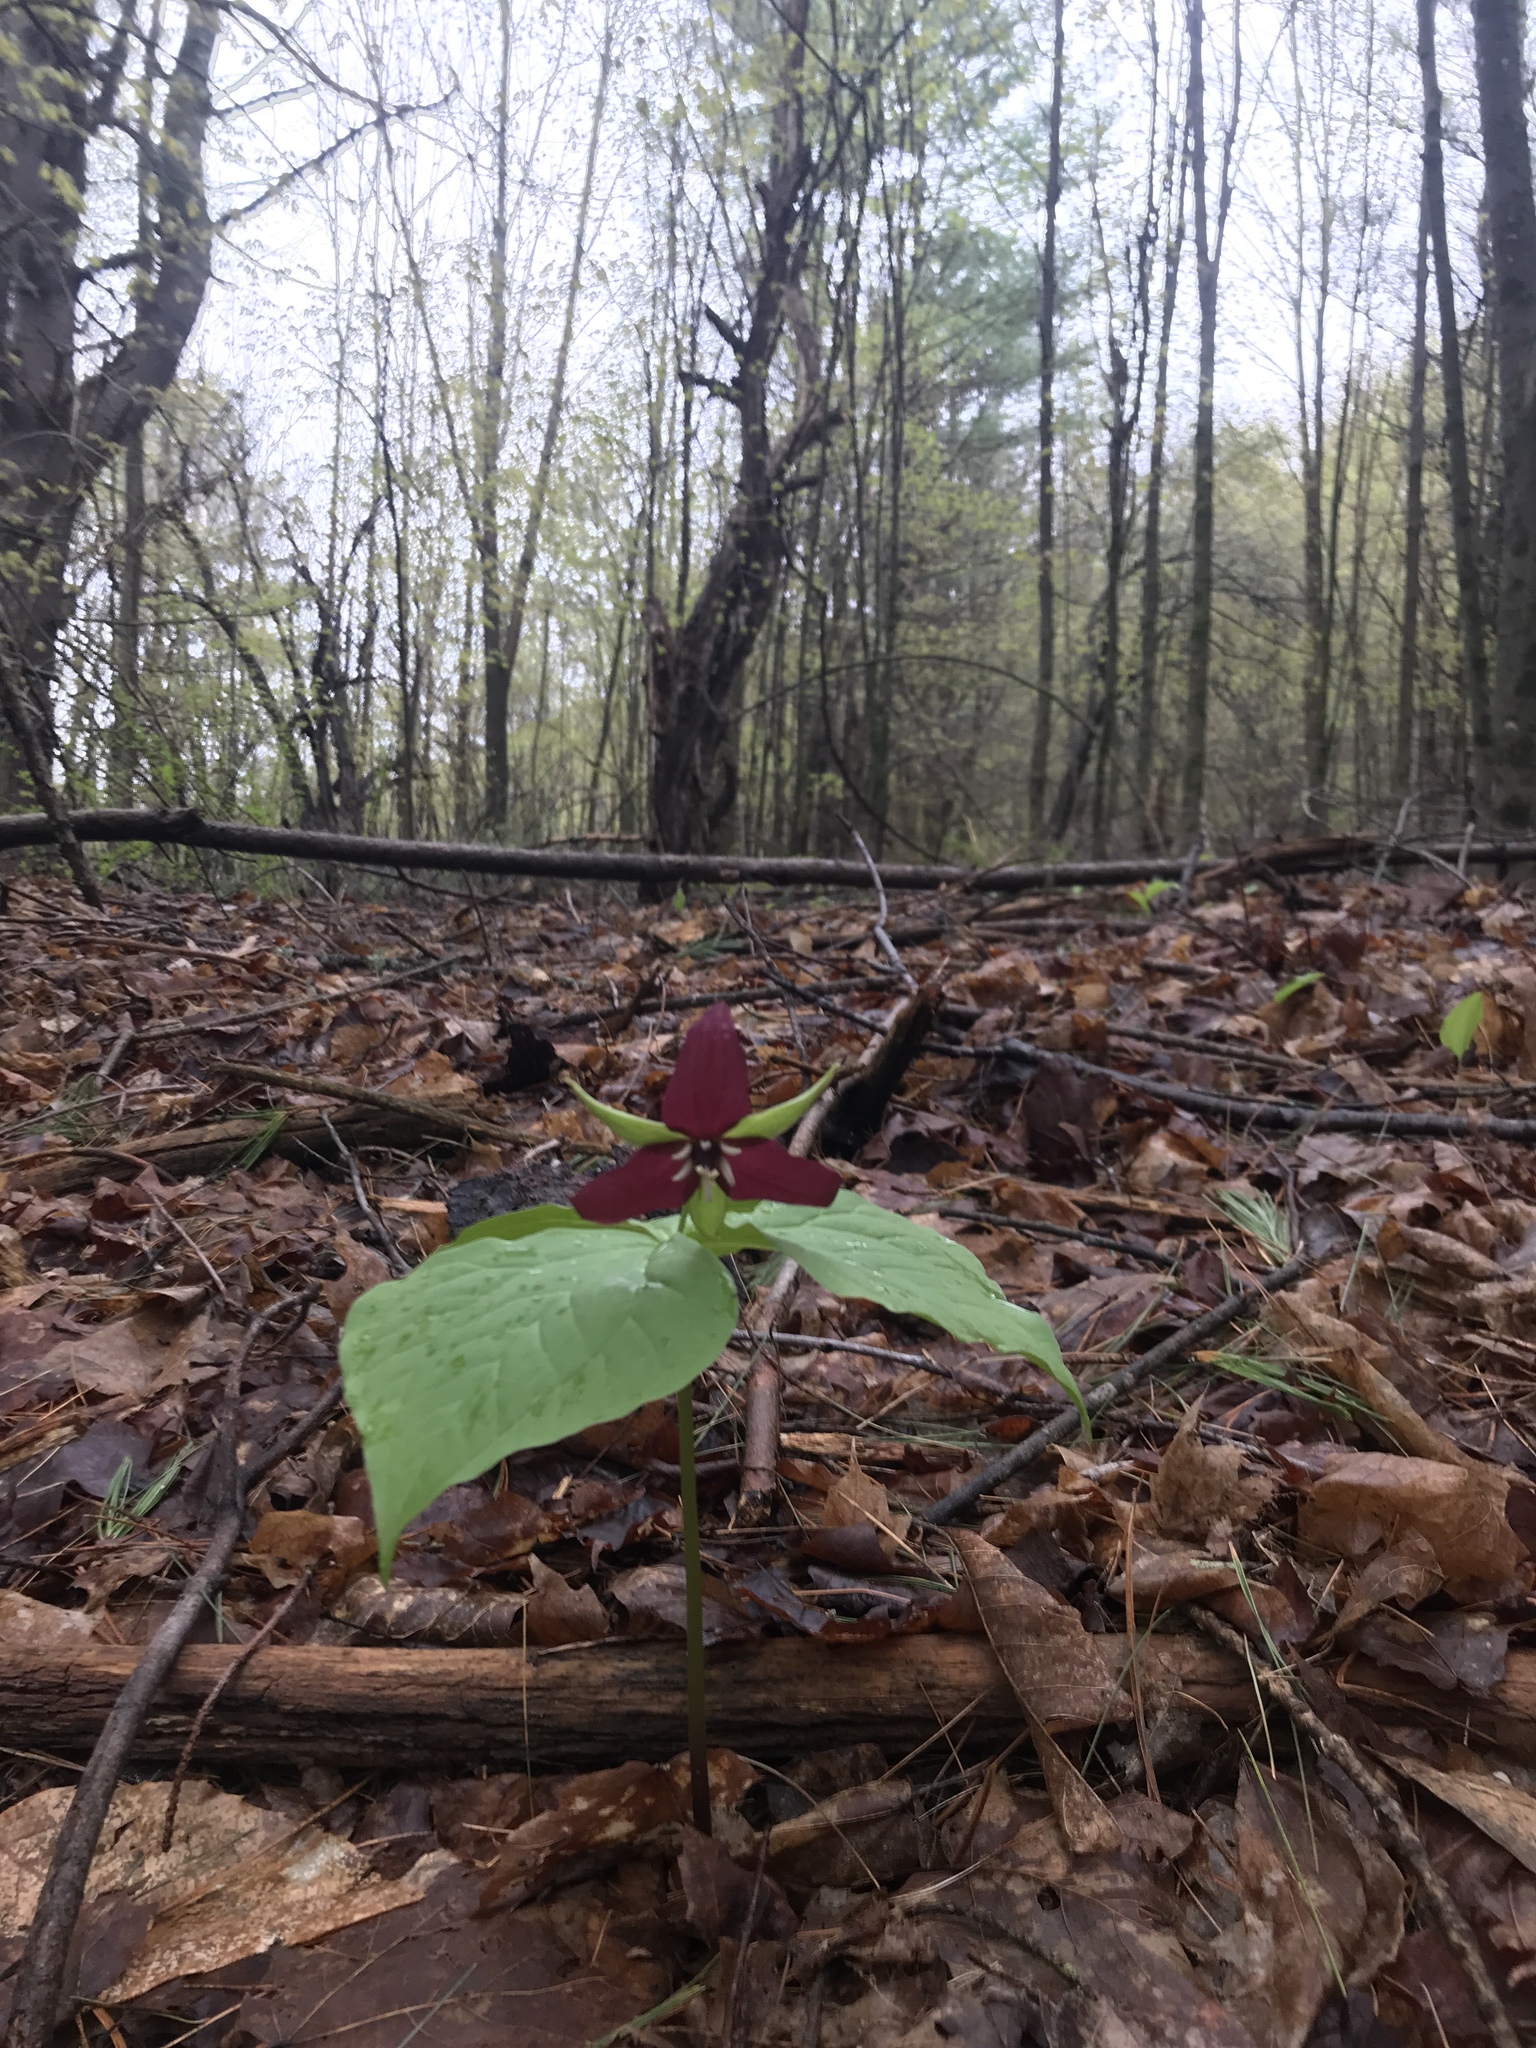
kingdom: Plantae
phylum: Tracheophyta
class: Liliopsida
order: Liliales
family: Melanthiaceae
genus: Trillium
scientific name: Trillium erectum
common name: Purple trillium
